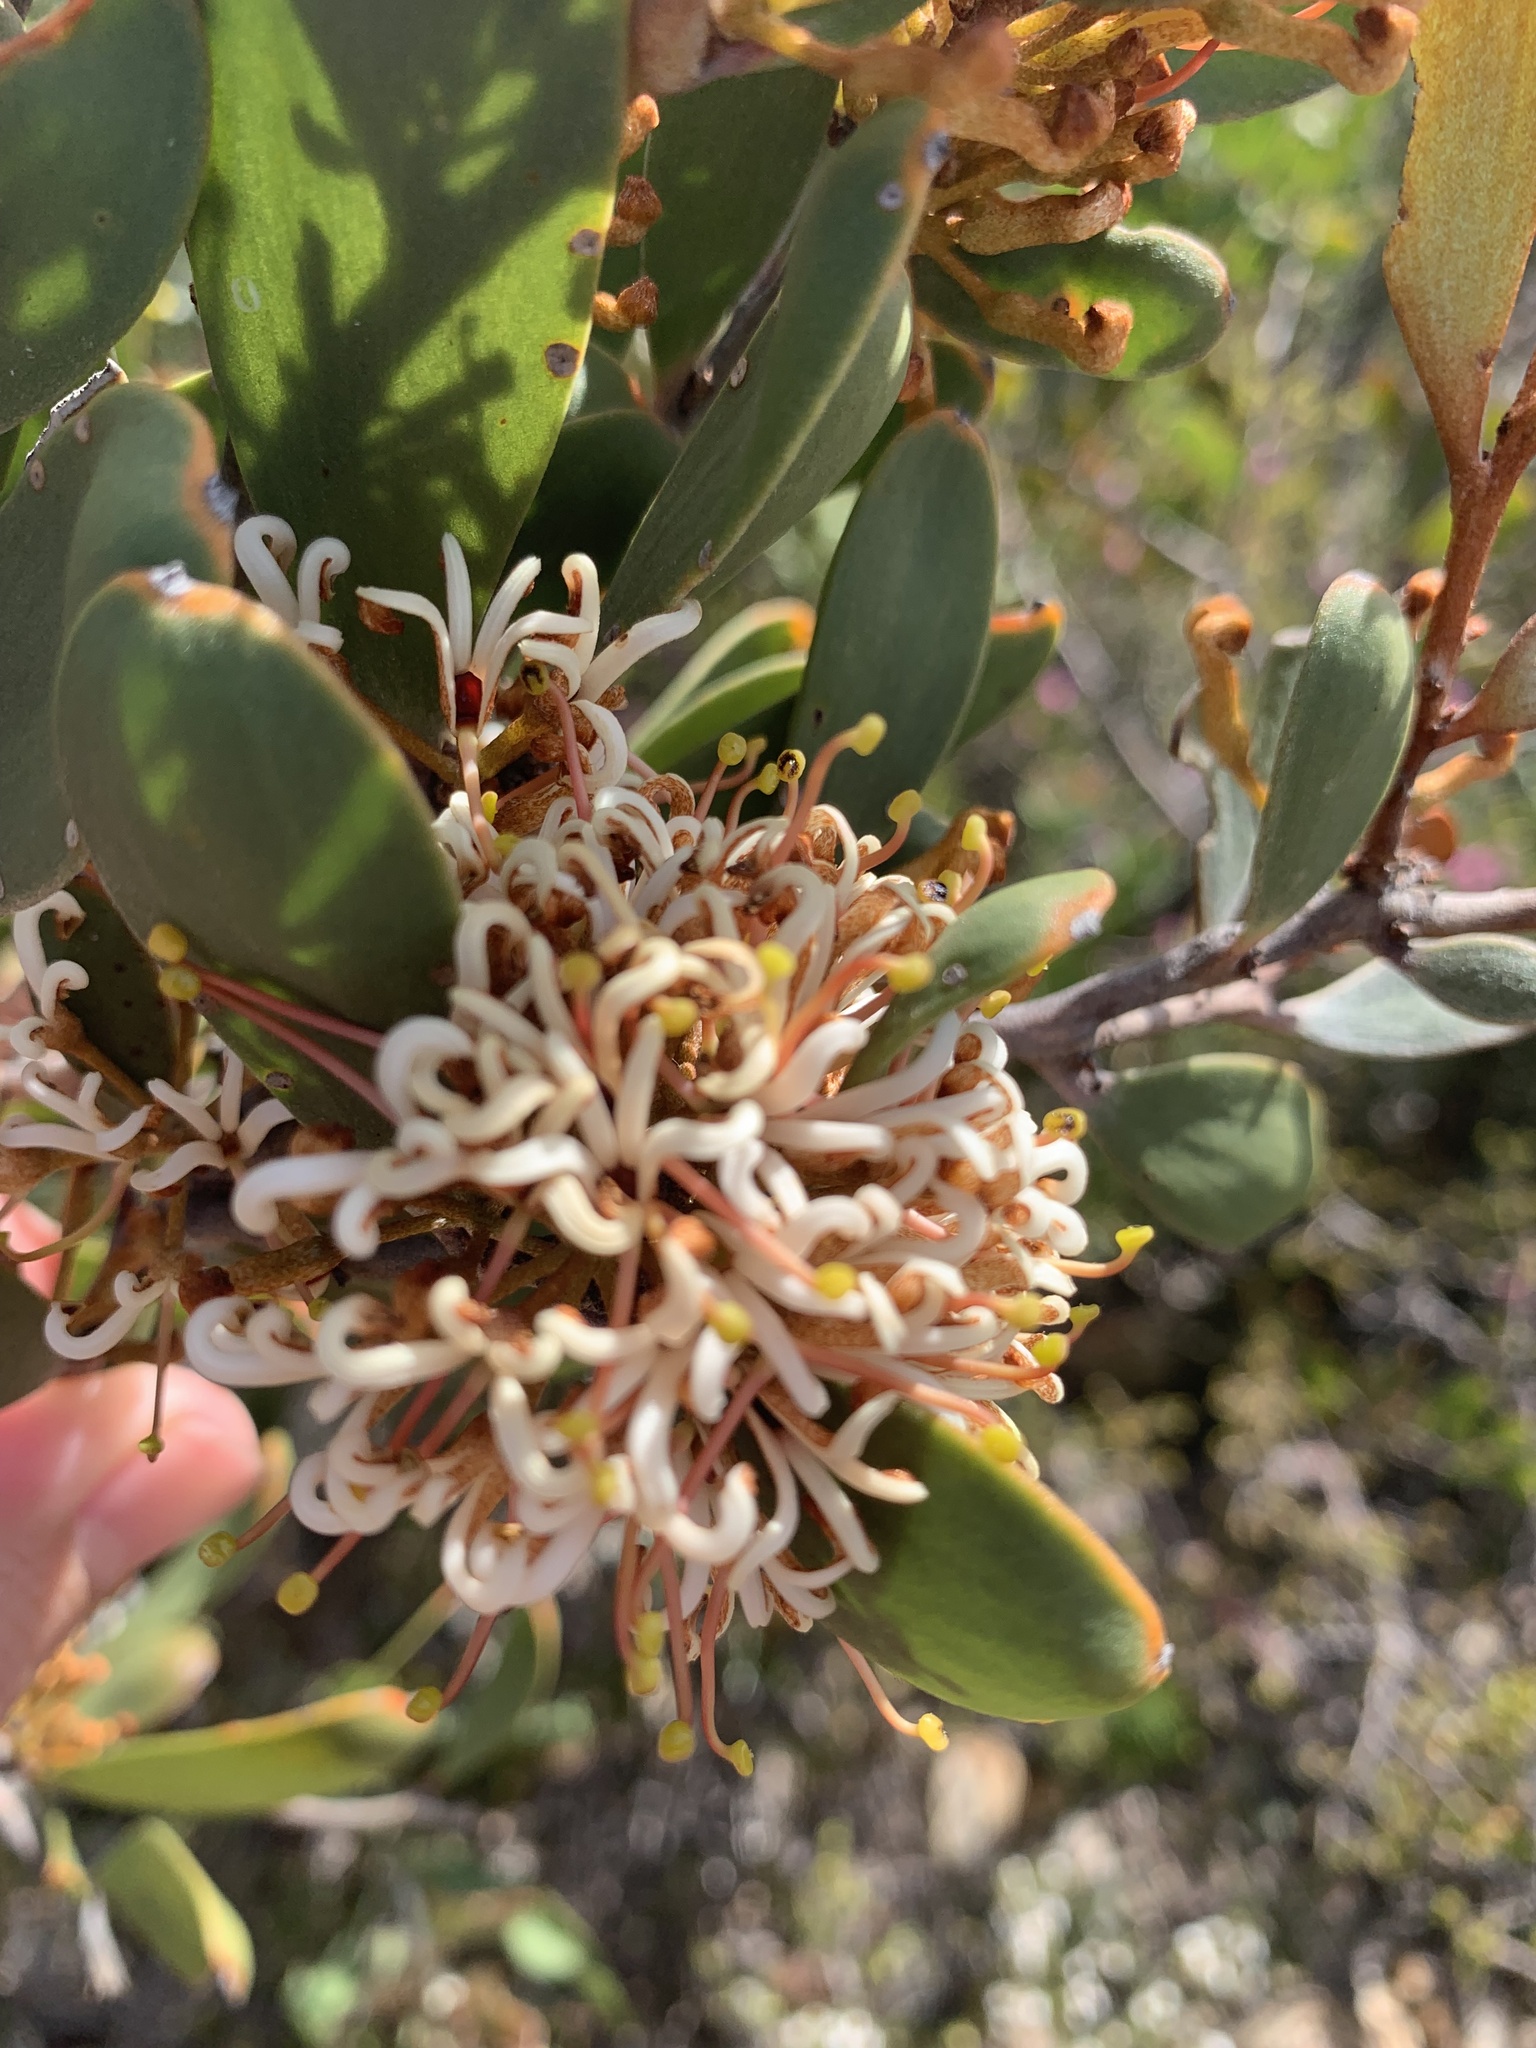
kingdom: Plantae
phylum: Tracheophyta
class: Magnoliopsida
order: Proteales
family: Proteaceae
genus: Hakea
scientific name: Hakea pandanicarpa
